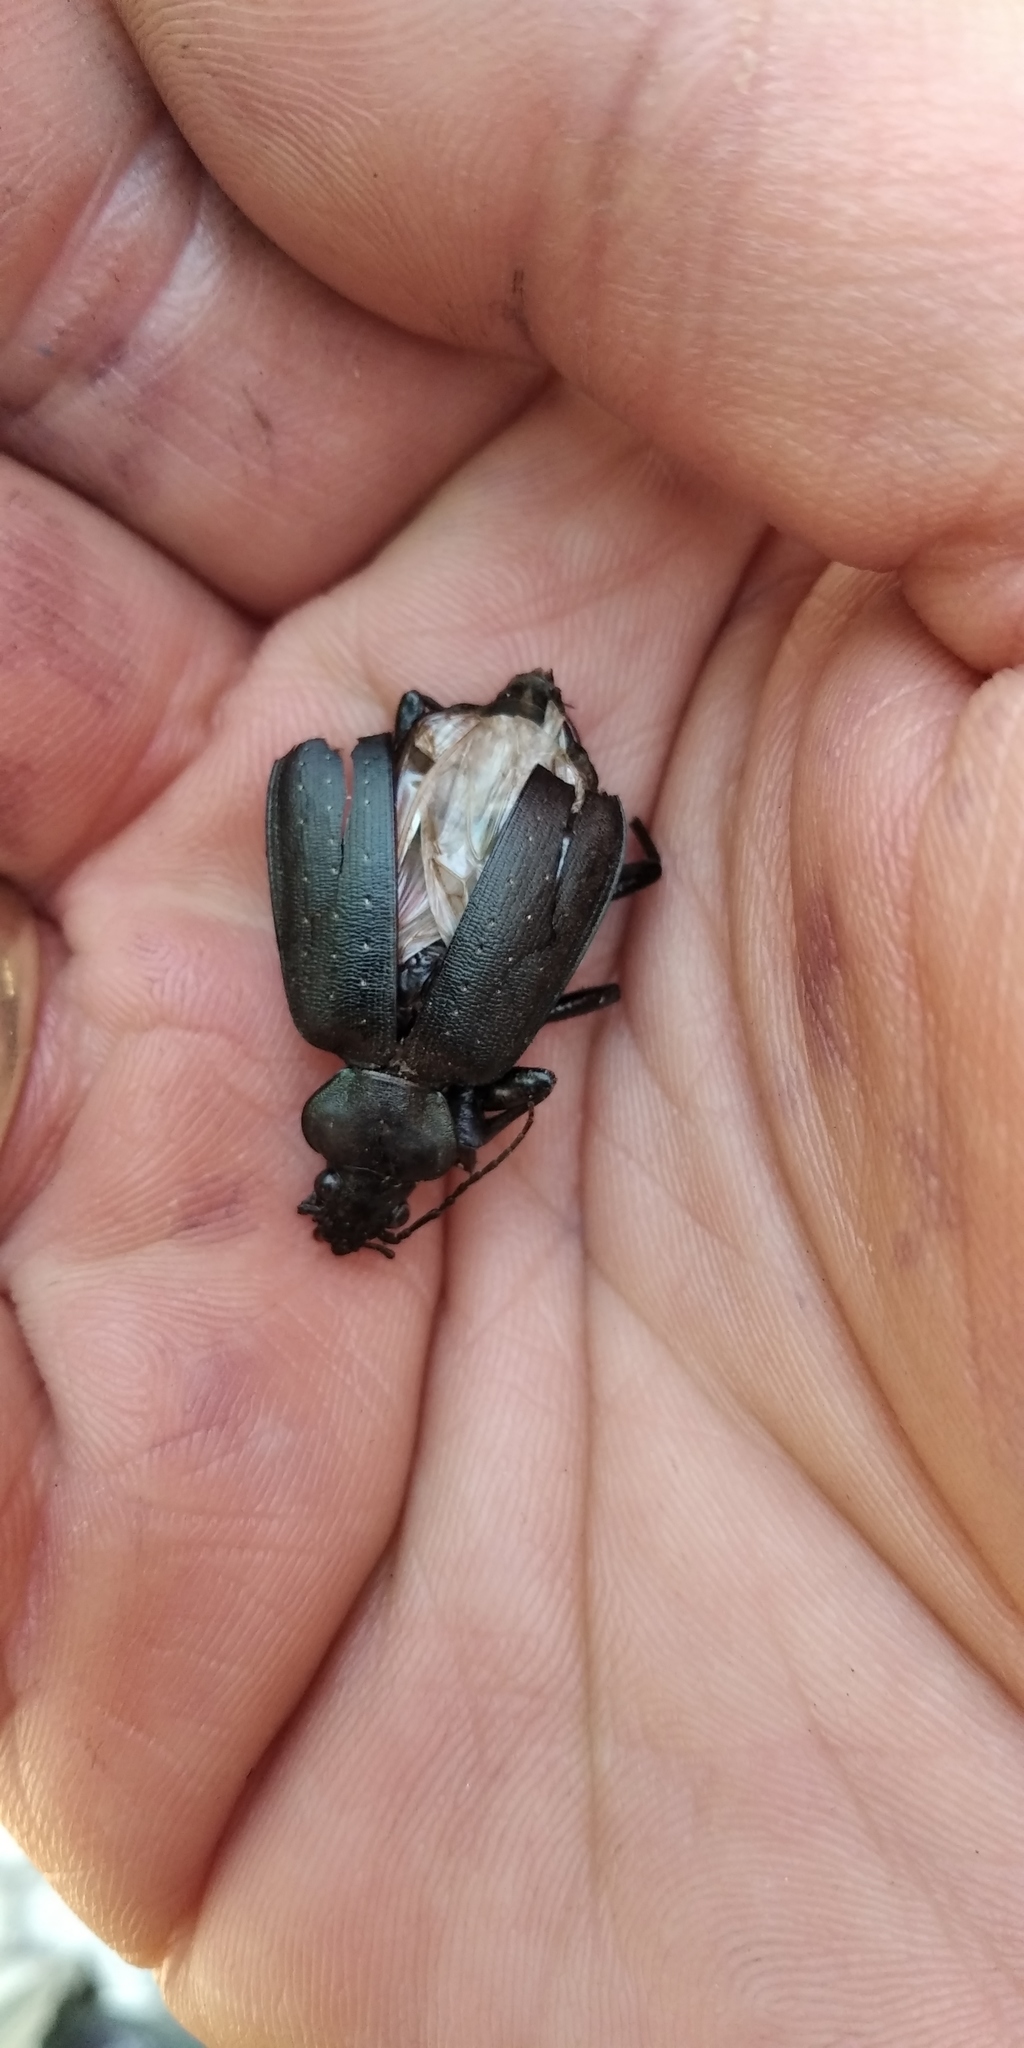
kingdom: Animalia
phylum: Arthropoda
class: Insecta
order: Coleoptera
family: Carabidae
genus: Calosoma
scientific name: Calosoma maderae
